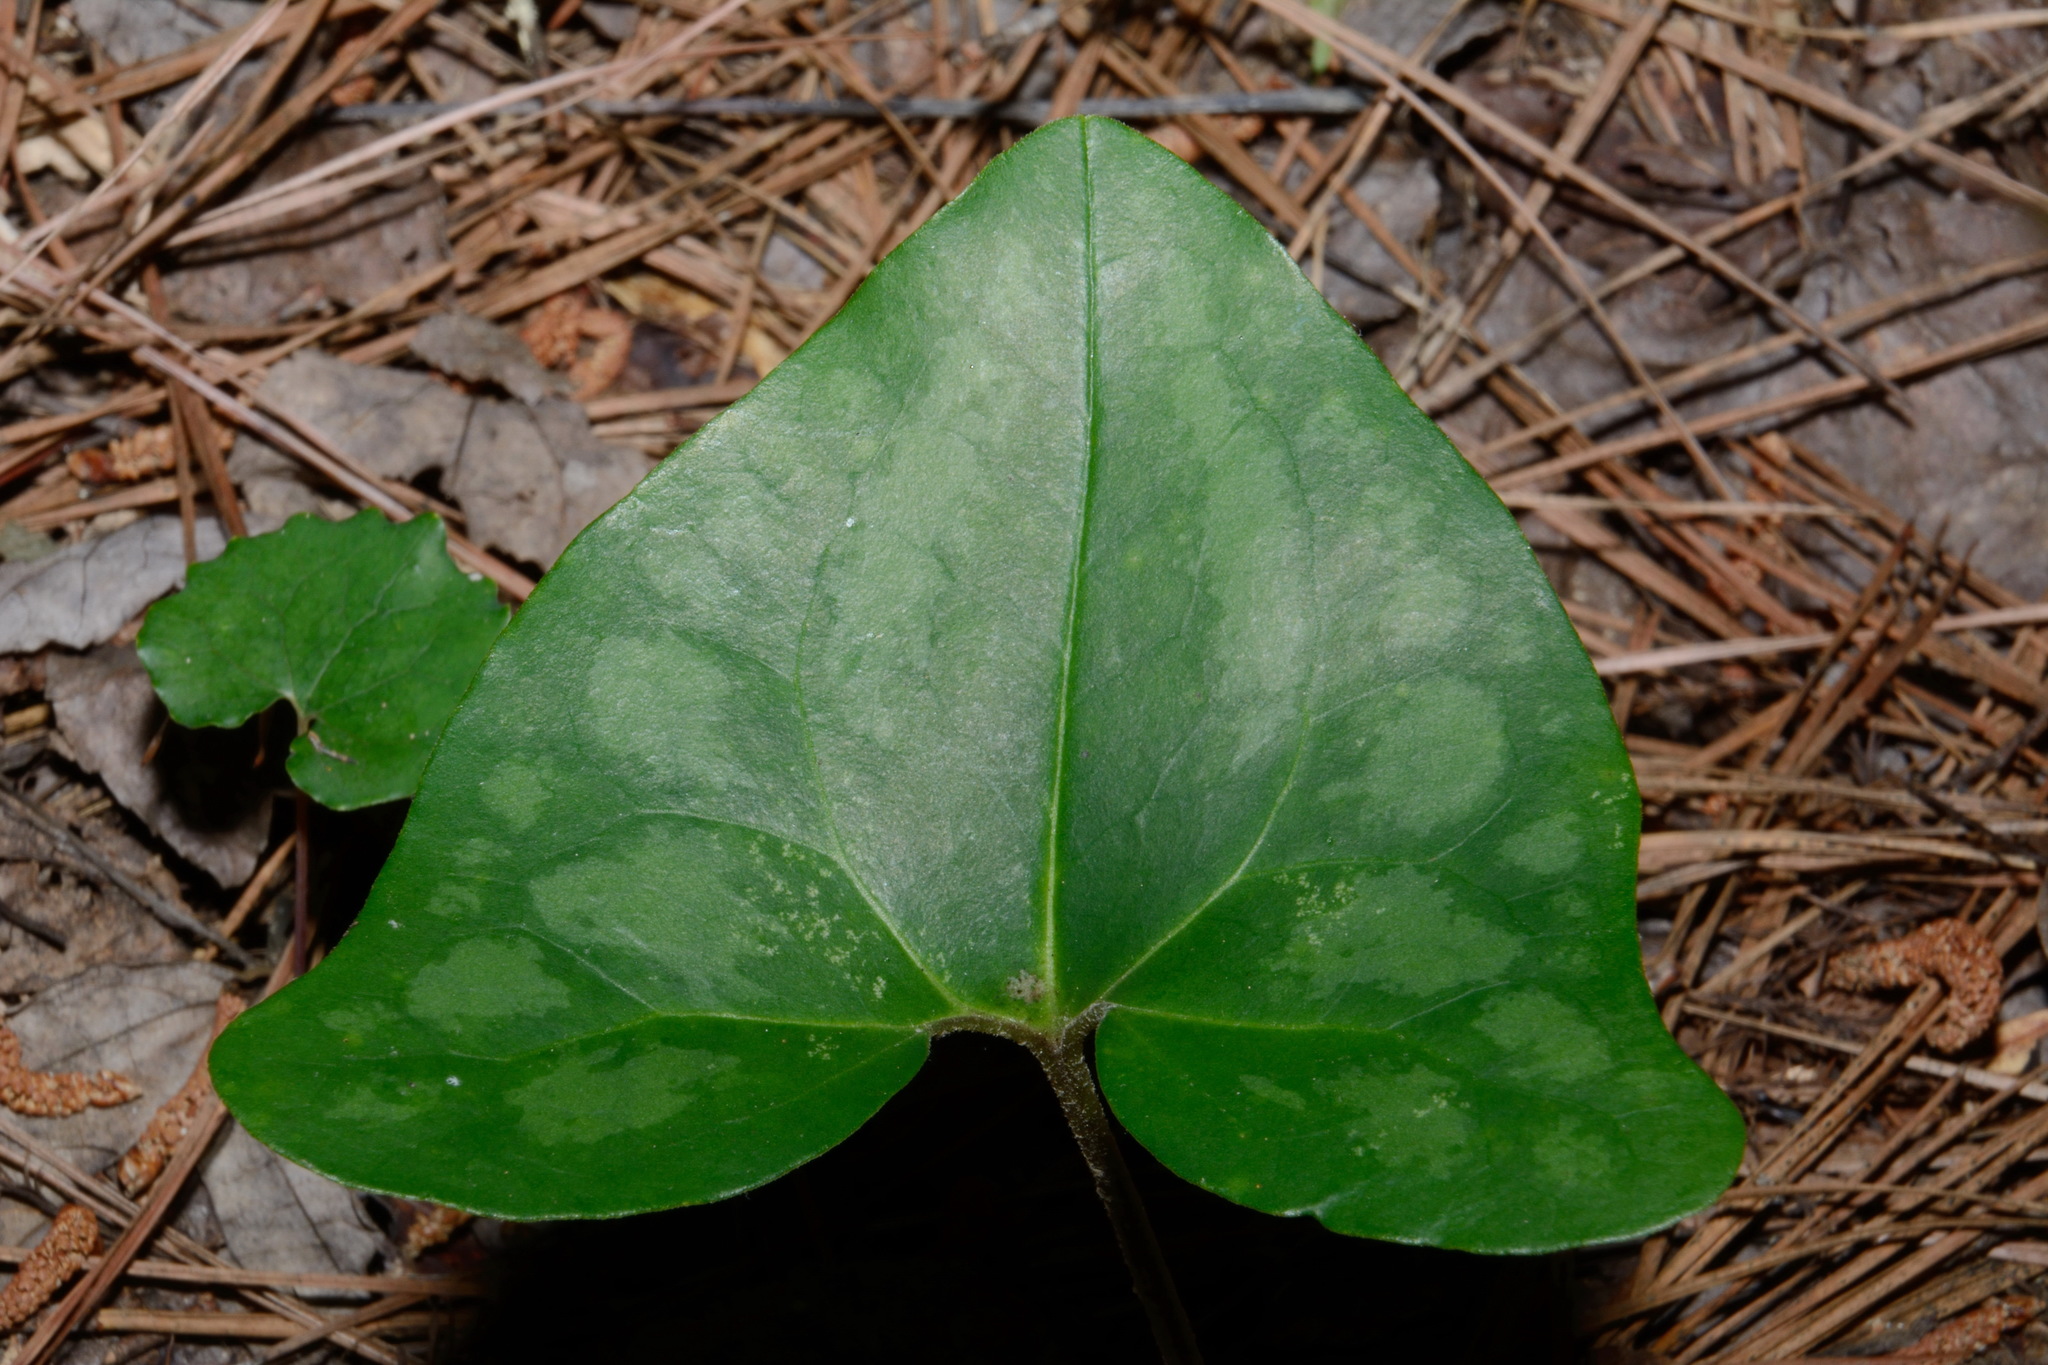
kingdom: Plantae
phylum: Tracheophyta
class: Magnoliopsida
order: Piperales
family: Aristolochiaceae
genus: Hexastylis
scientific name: Hexastylis speciosa
